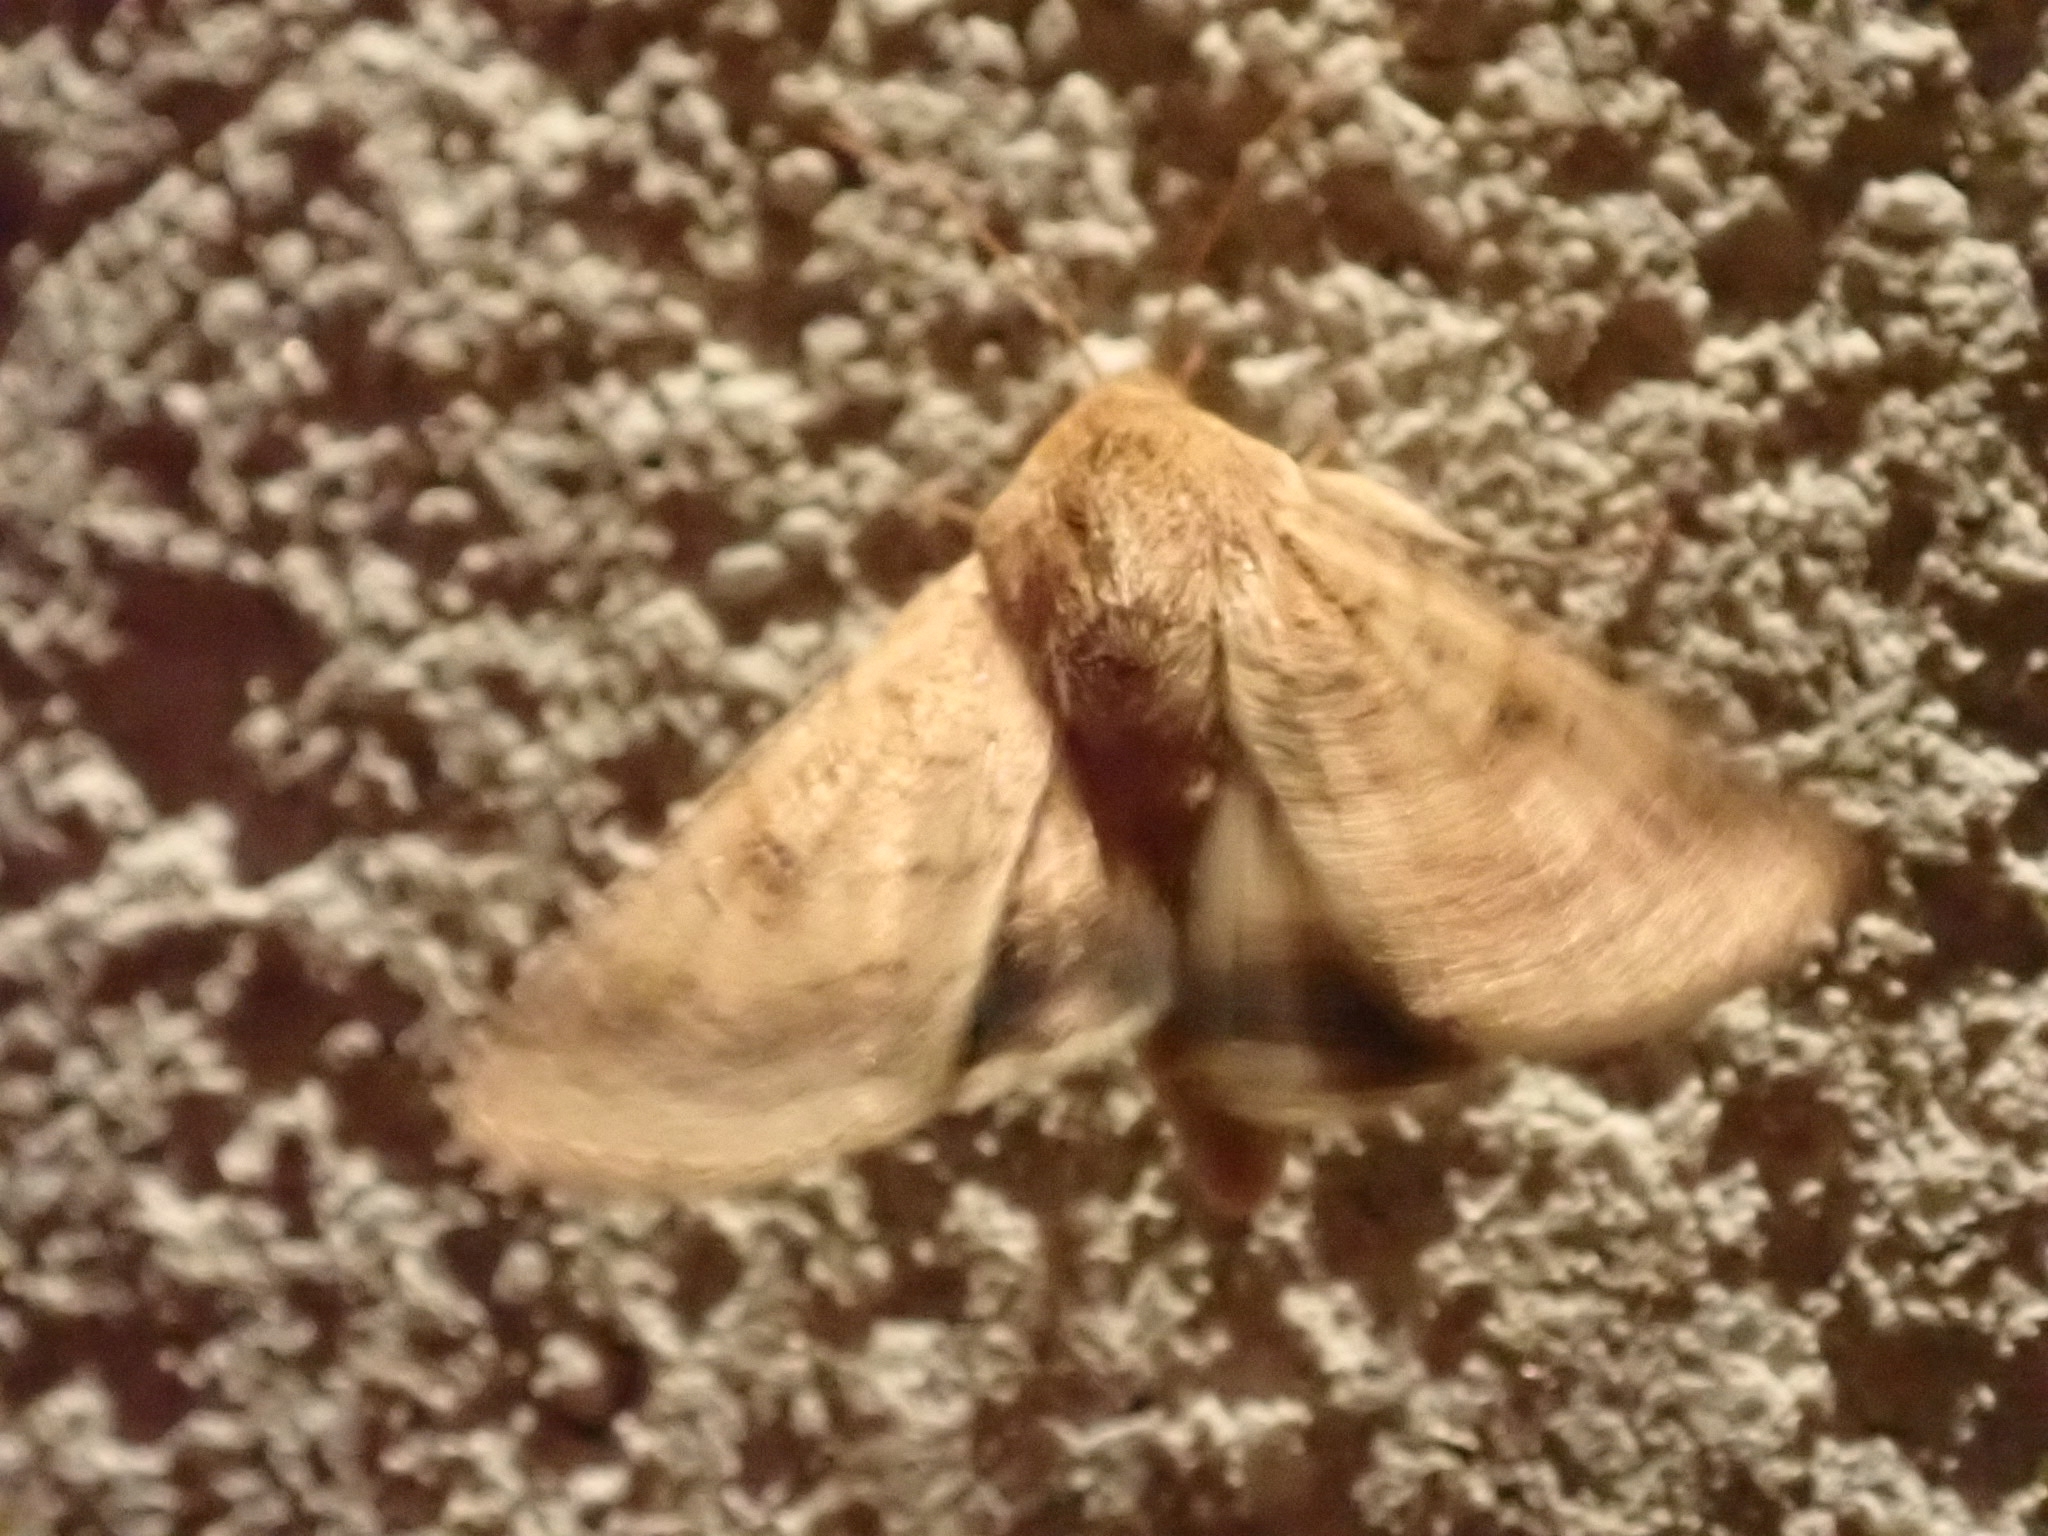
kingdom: Animalia
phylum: Arthropoda
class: Insecta
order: Lepidoptera
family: Noctuidae
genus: Helicoverpa
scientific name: Helicoverpa armigera
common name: Cotton bollworm
